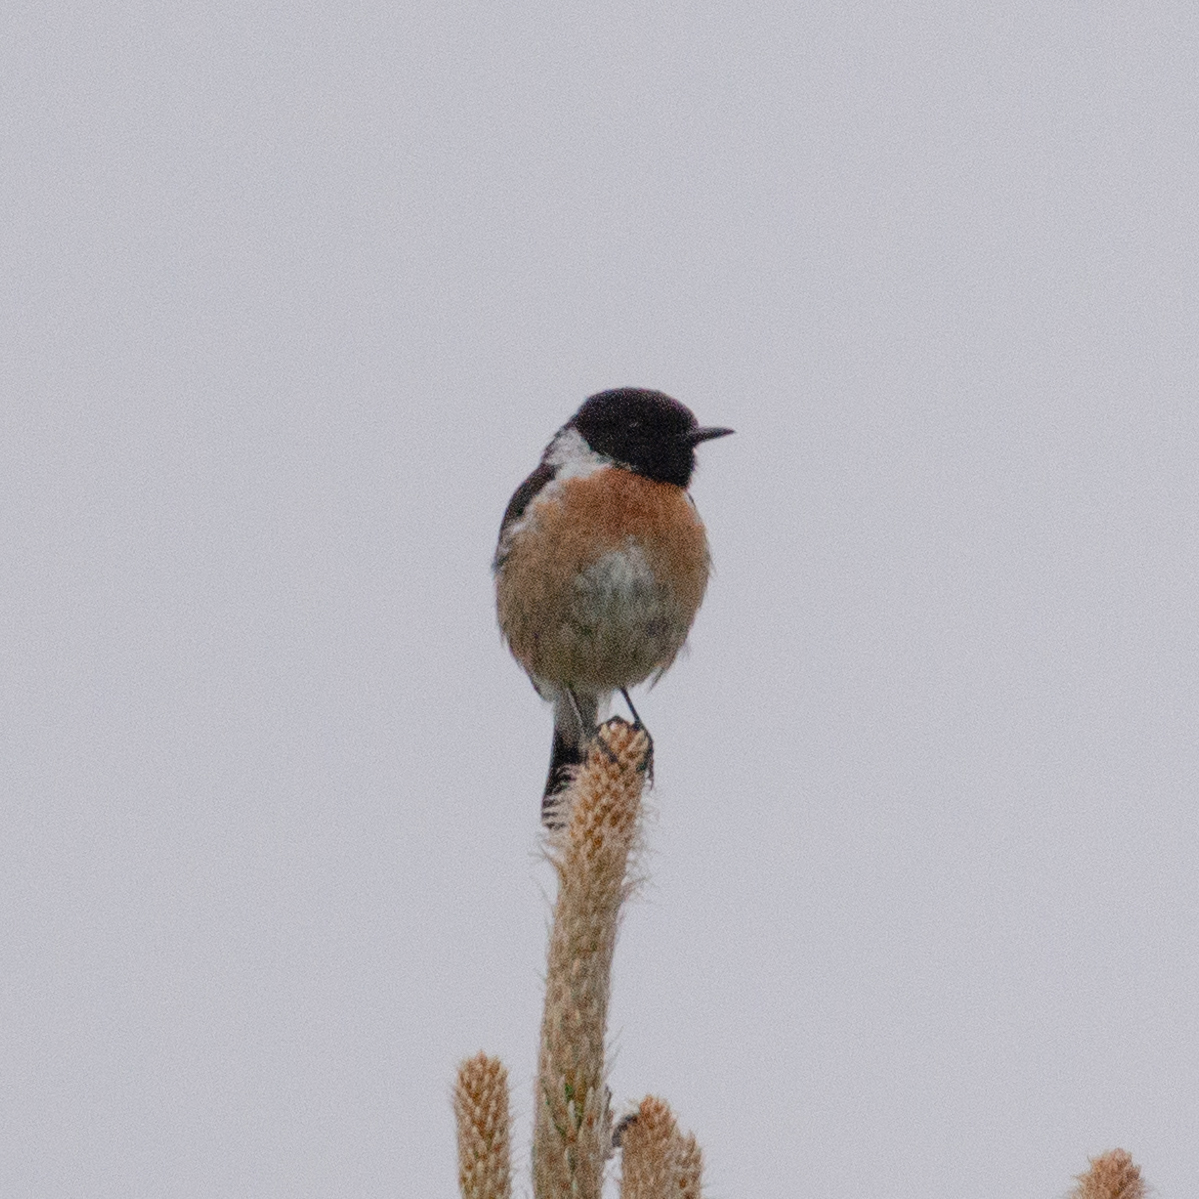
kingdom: Animalia
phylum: Chordata
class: Aves
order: Passeriformes
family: Muscicapidae
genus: Saxicola
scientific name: Saxicola rubicola
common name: European stonechat
